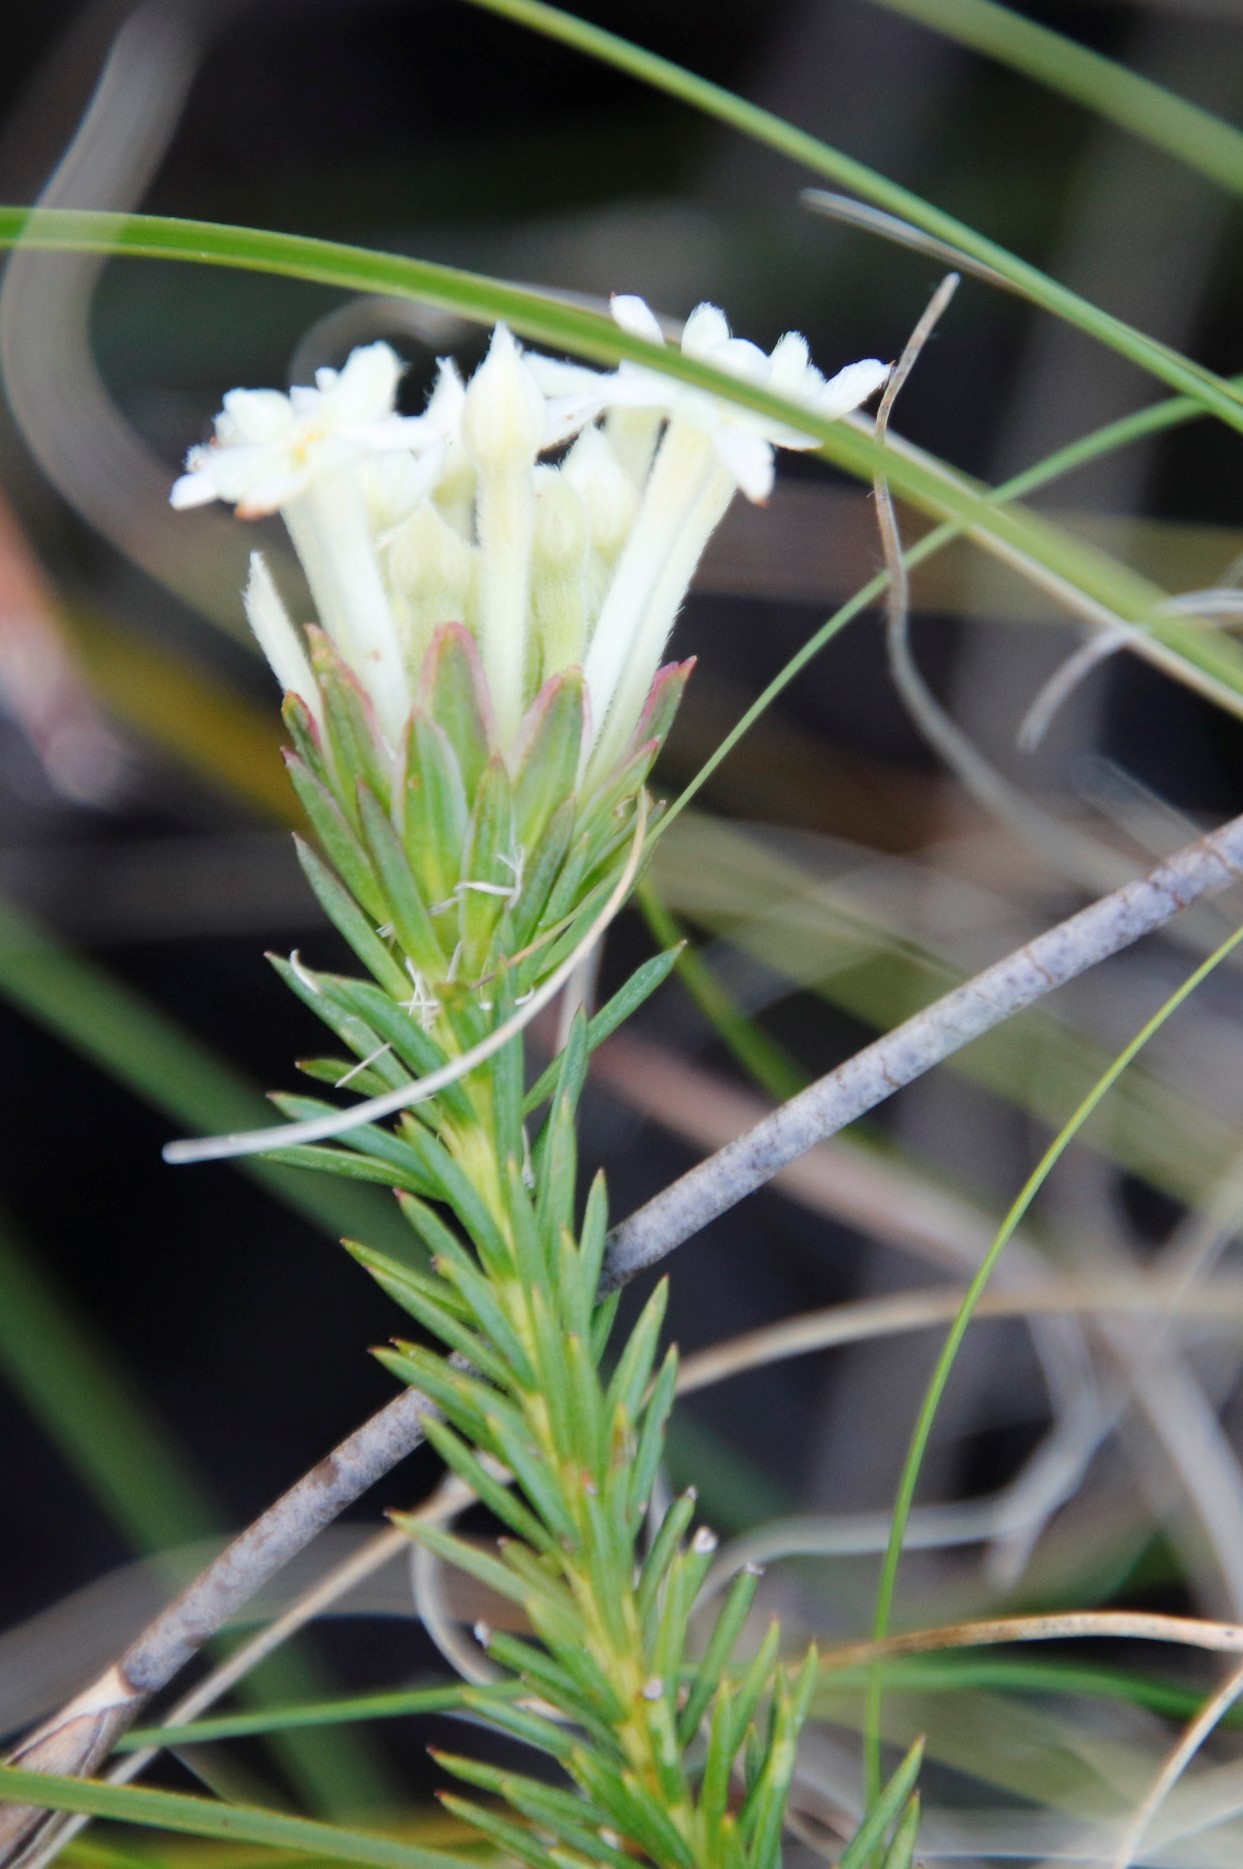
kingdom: Plantae
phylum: Tracheophyta
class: Magnoliopsida
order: Malvales
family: Thymelaeaceae
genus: Gnidia
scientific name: Gnidia pinifolia
